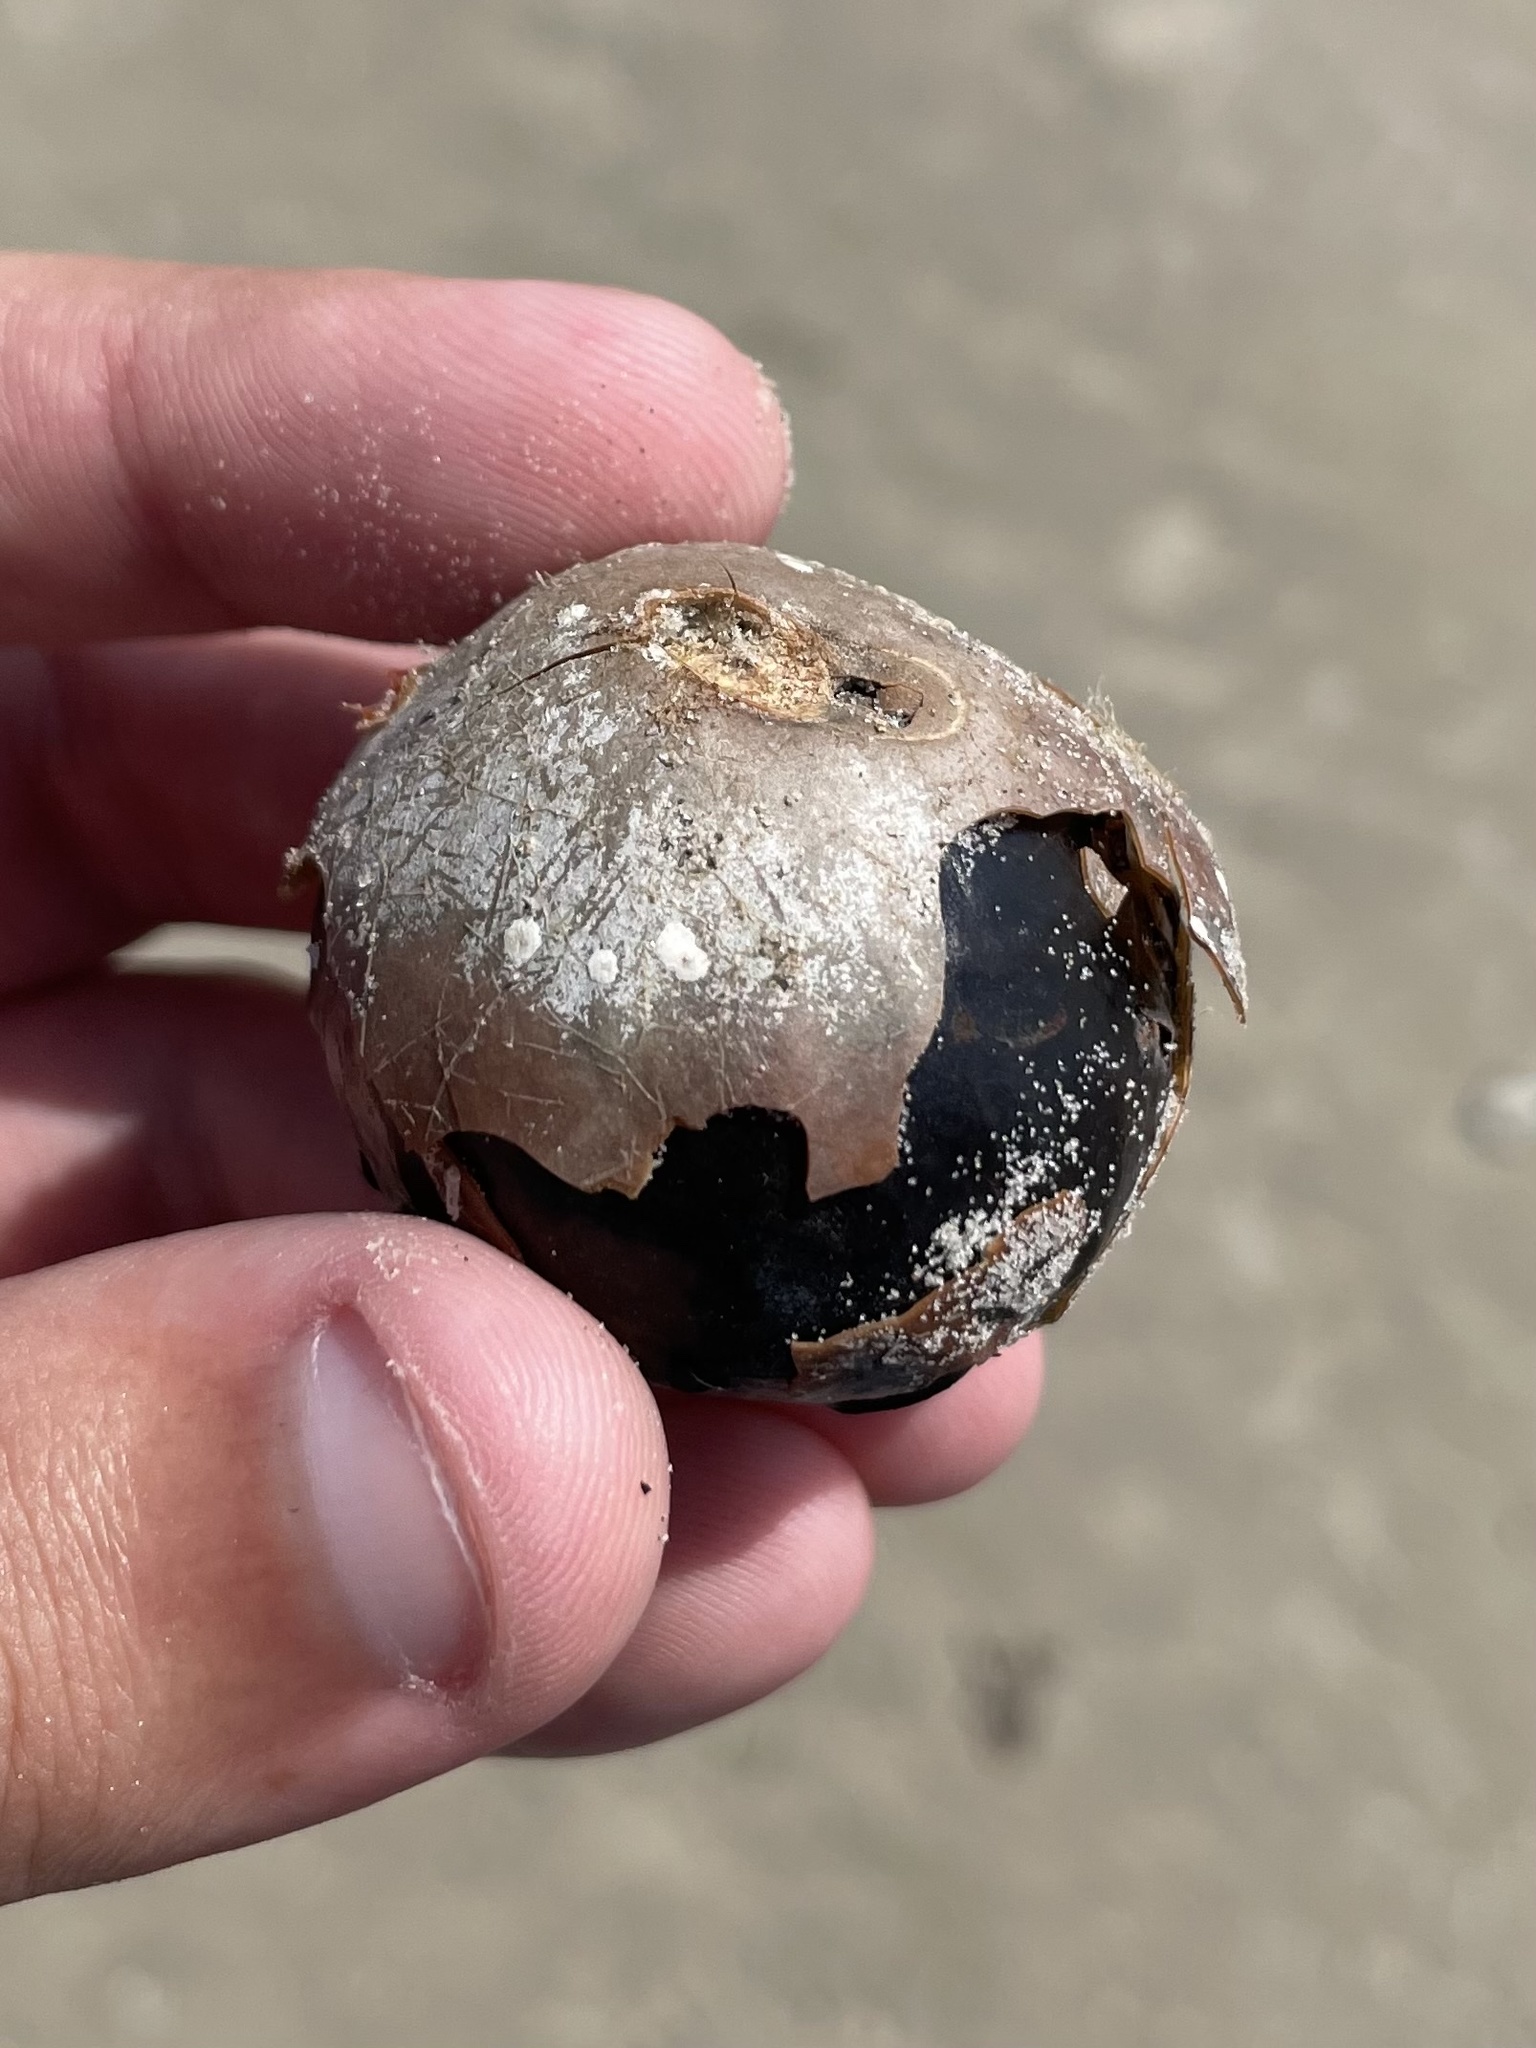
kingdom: Plantae
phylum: Tracheophyta
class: Liliopsida
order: Arecales
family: Arecaceae
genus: Manicaria
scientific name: Manicaria saccifera
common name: Sea coconut
